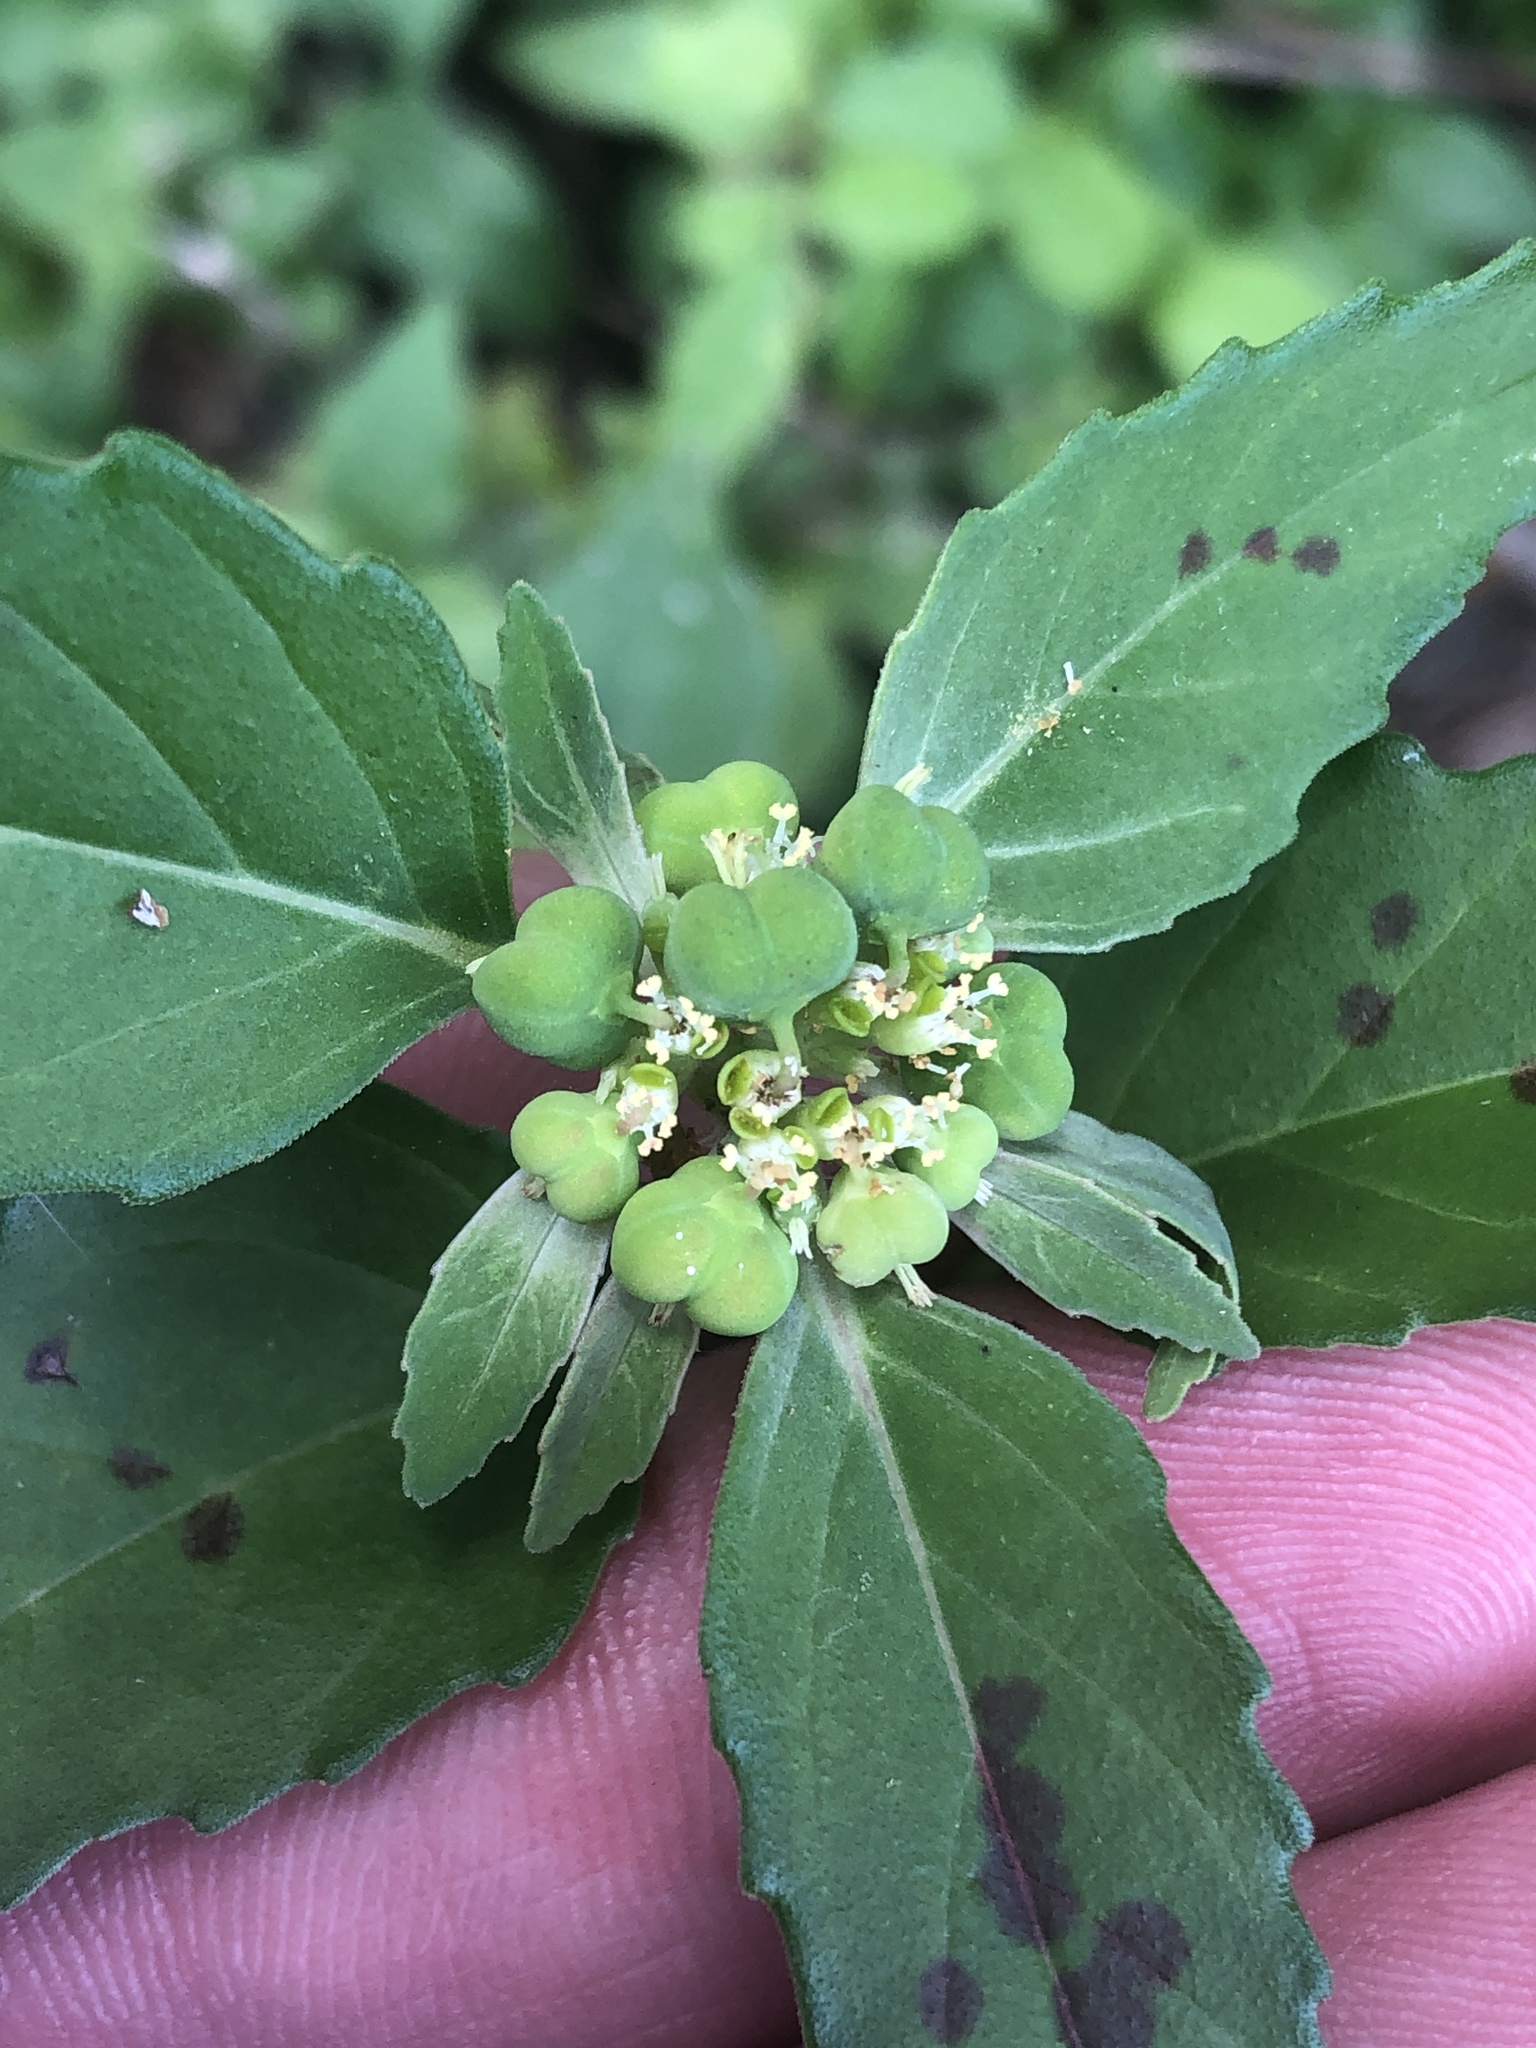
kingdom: Plantae
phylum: Tracheophyta
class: Magnoliopsida
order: Malpighiales
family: Euphorbiaceae
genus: Euphorbia
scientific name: Euphorbia dentata
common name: Dentate spurge
